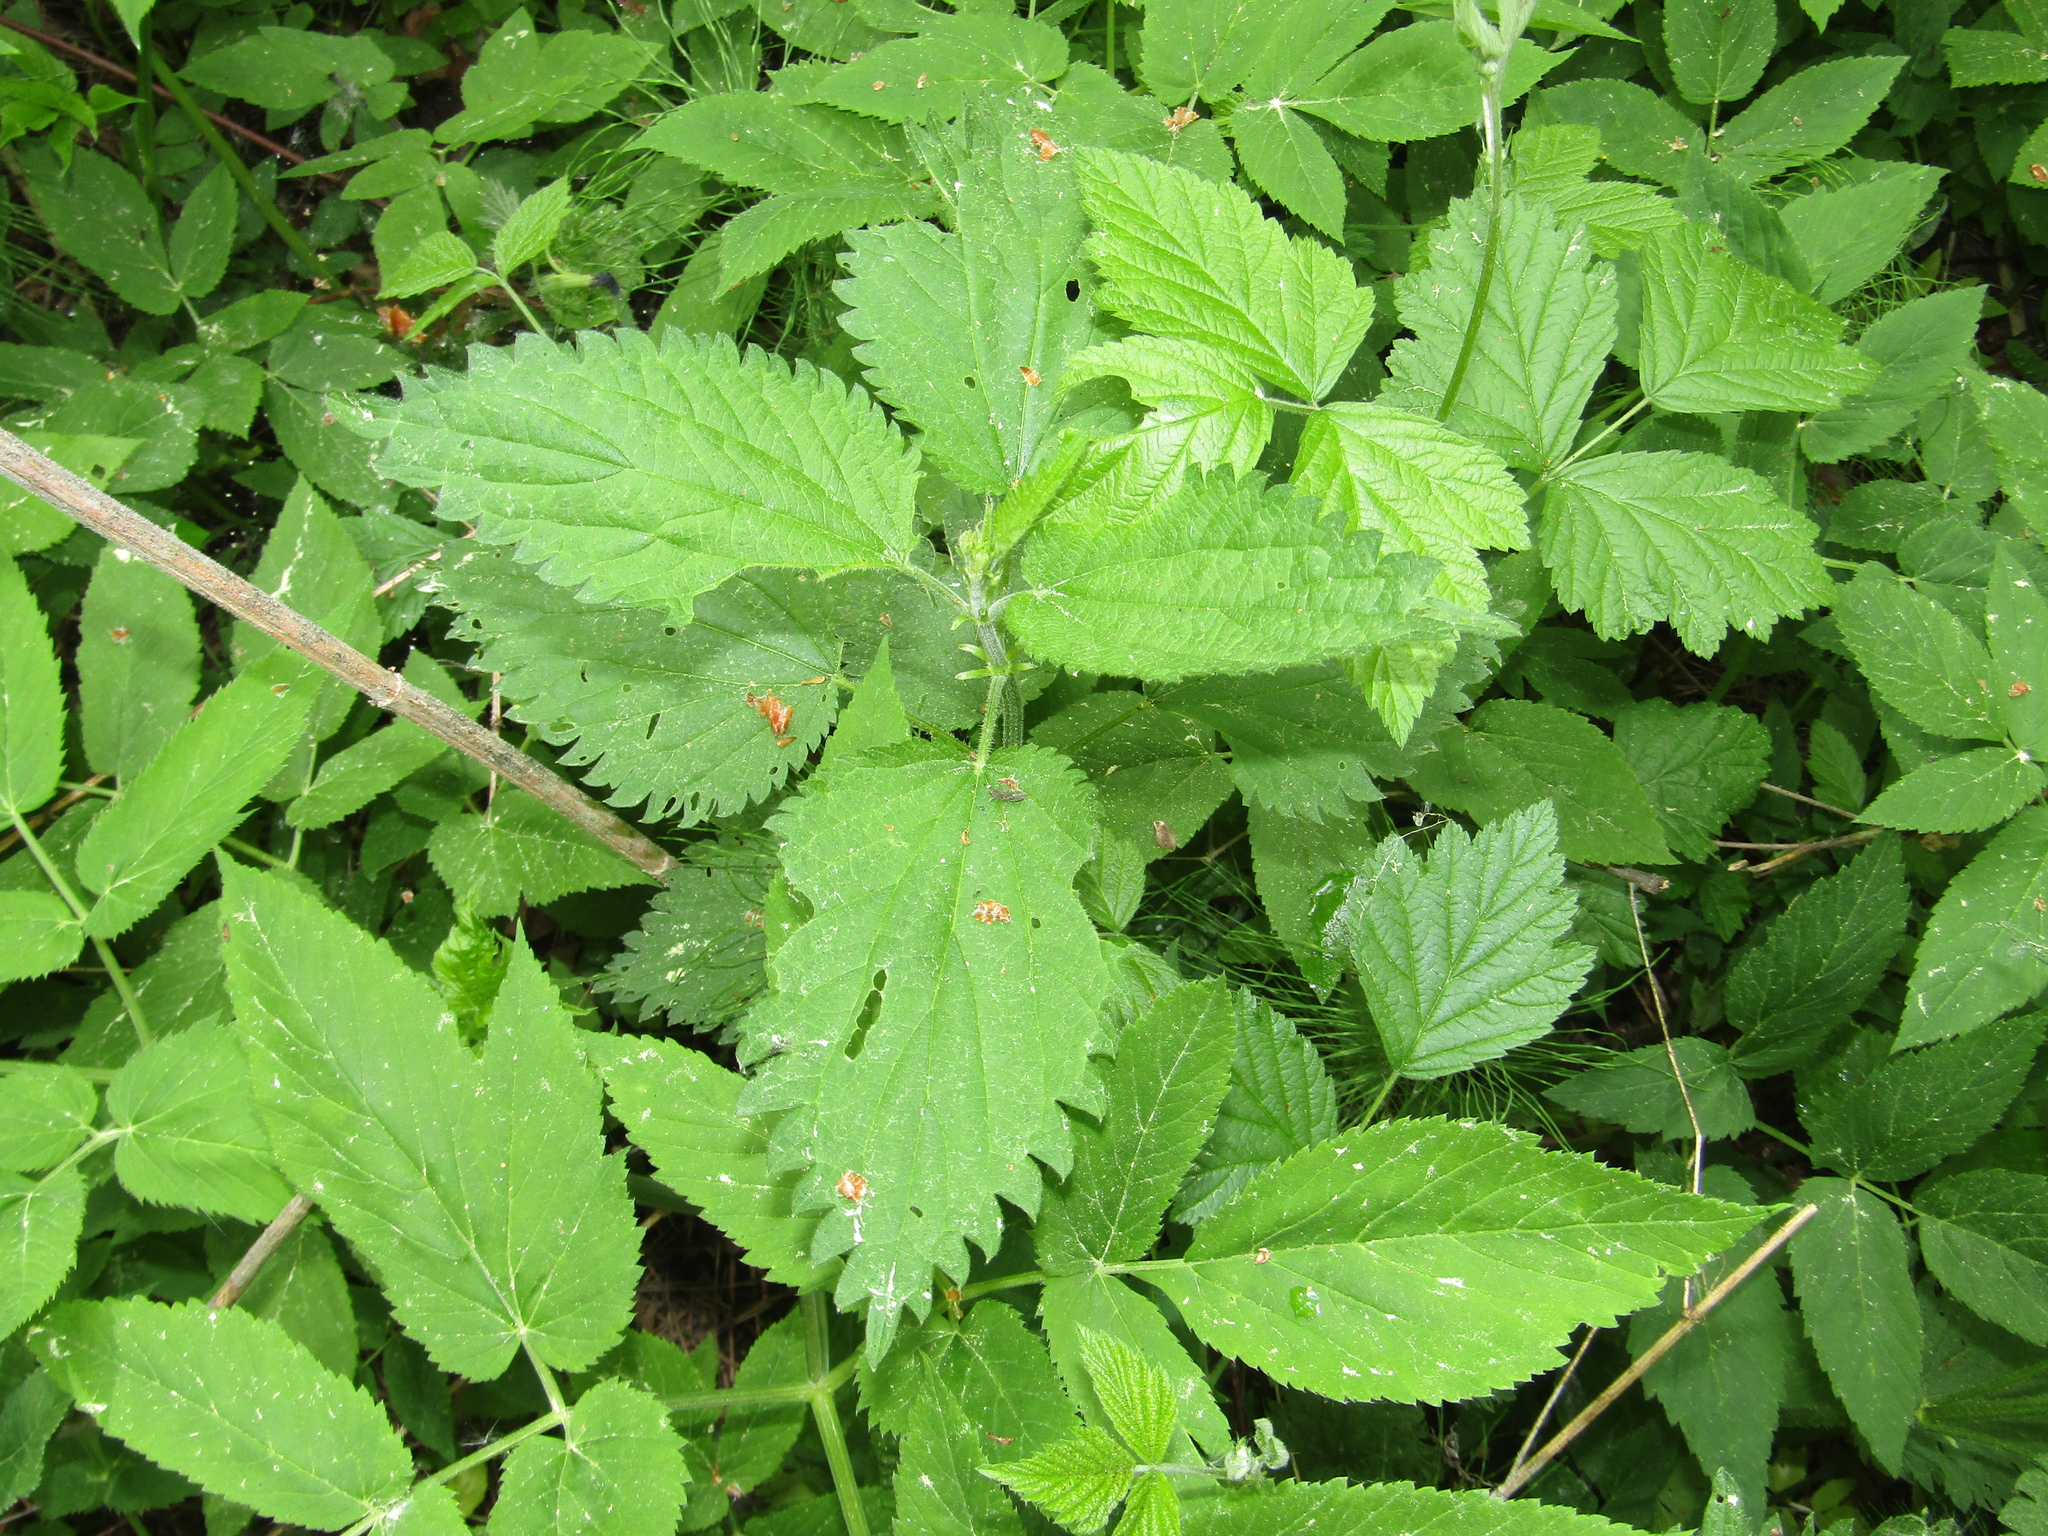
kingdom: Plantae
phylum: Tracheophyta
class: Magnoliopsida
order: Rosales
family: Urticaceae
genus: Urtica
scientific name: Urtica dioica
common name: Common nettle
